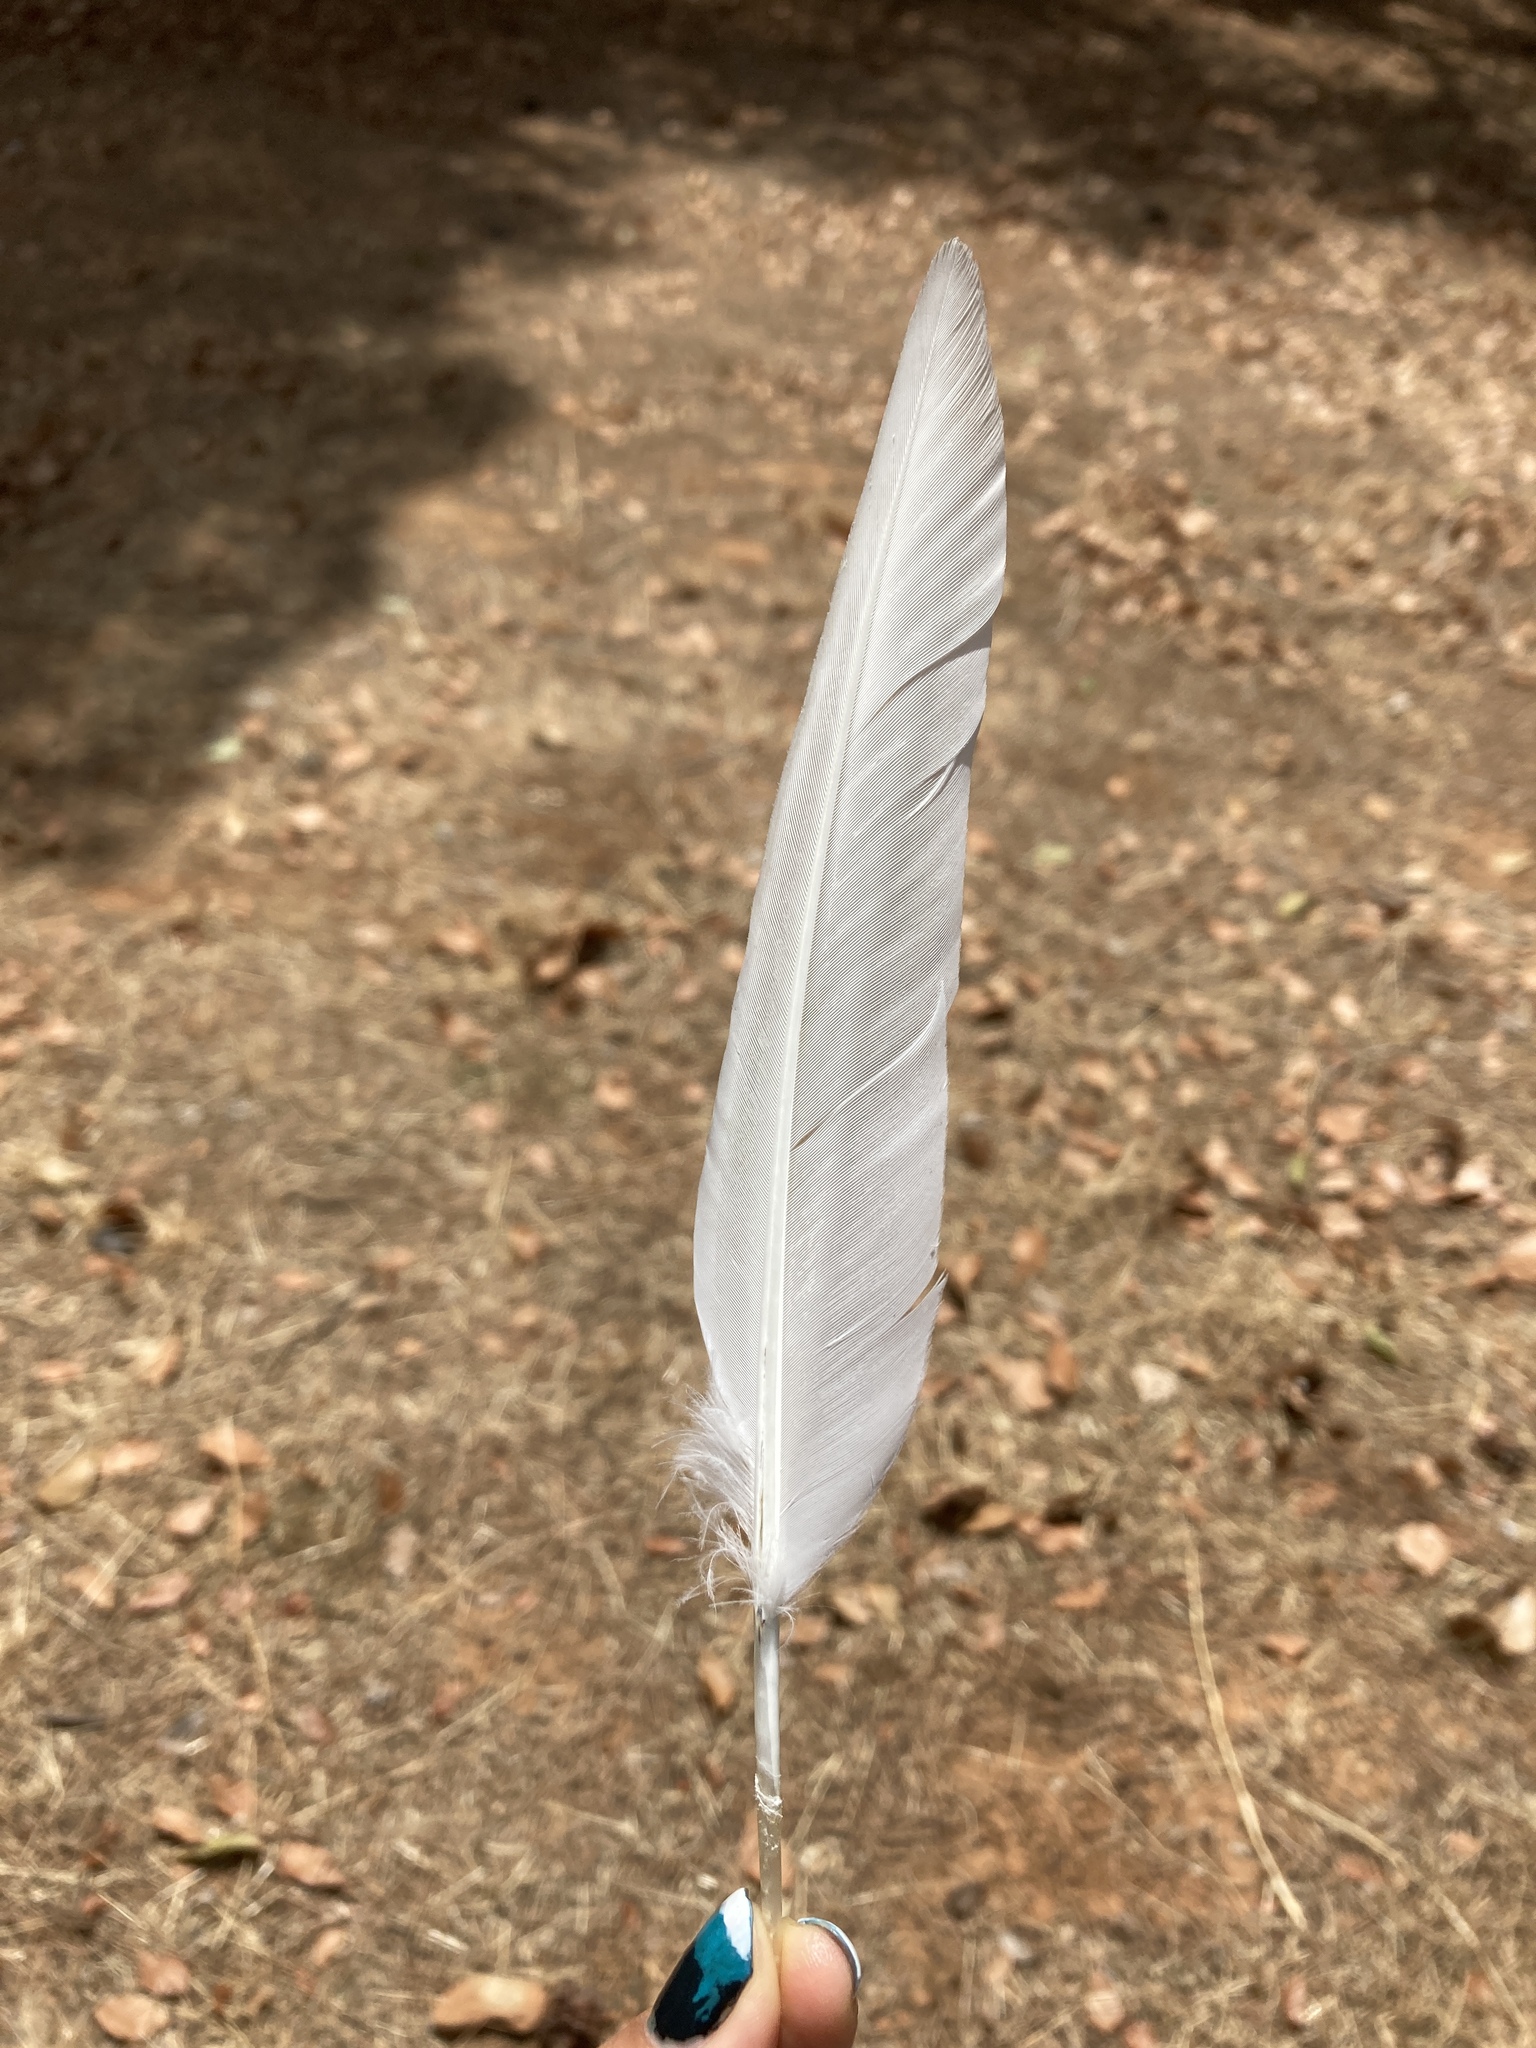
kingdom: Animalia
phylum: Chordata
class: Aves
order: Columbiformes
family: Columbidae
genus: Columba
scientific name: Columba livia
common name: Rock pigeon
